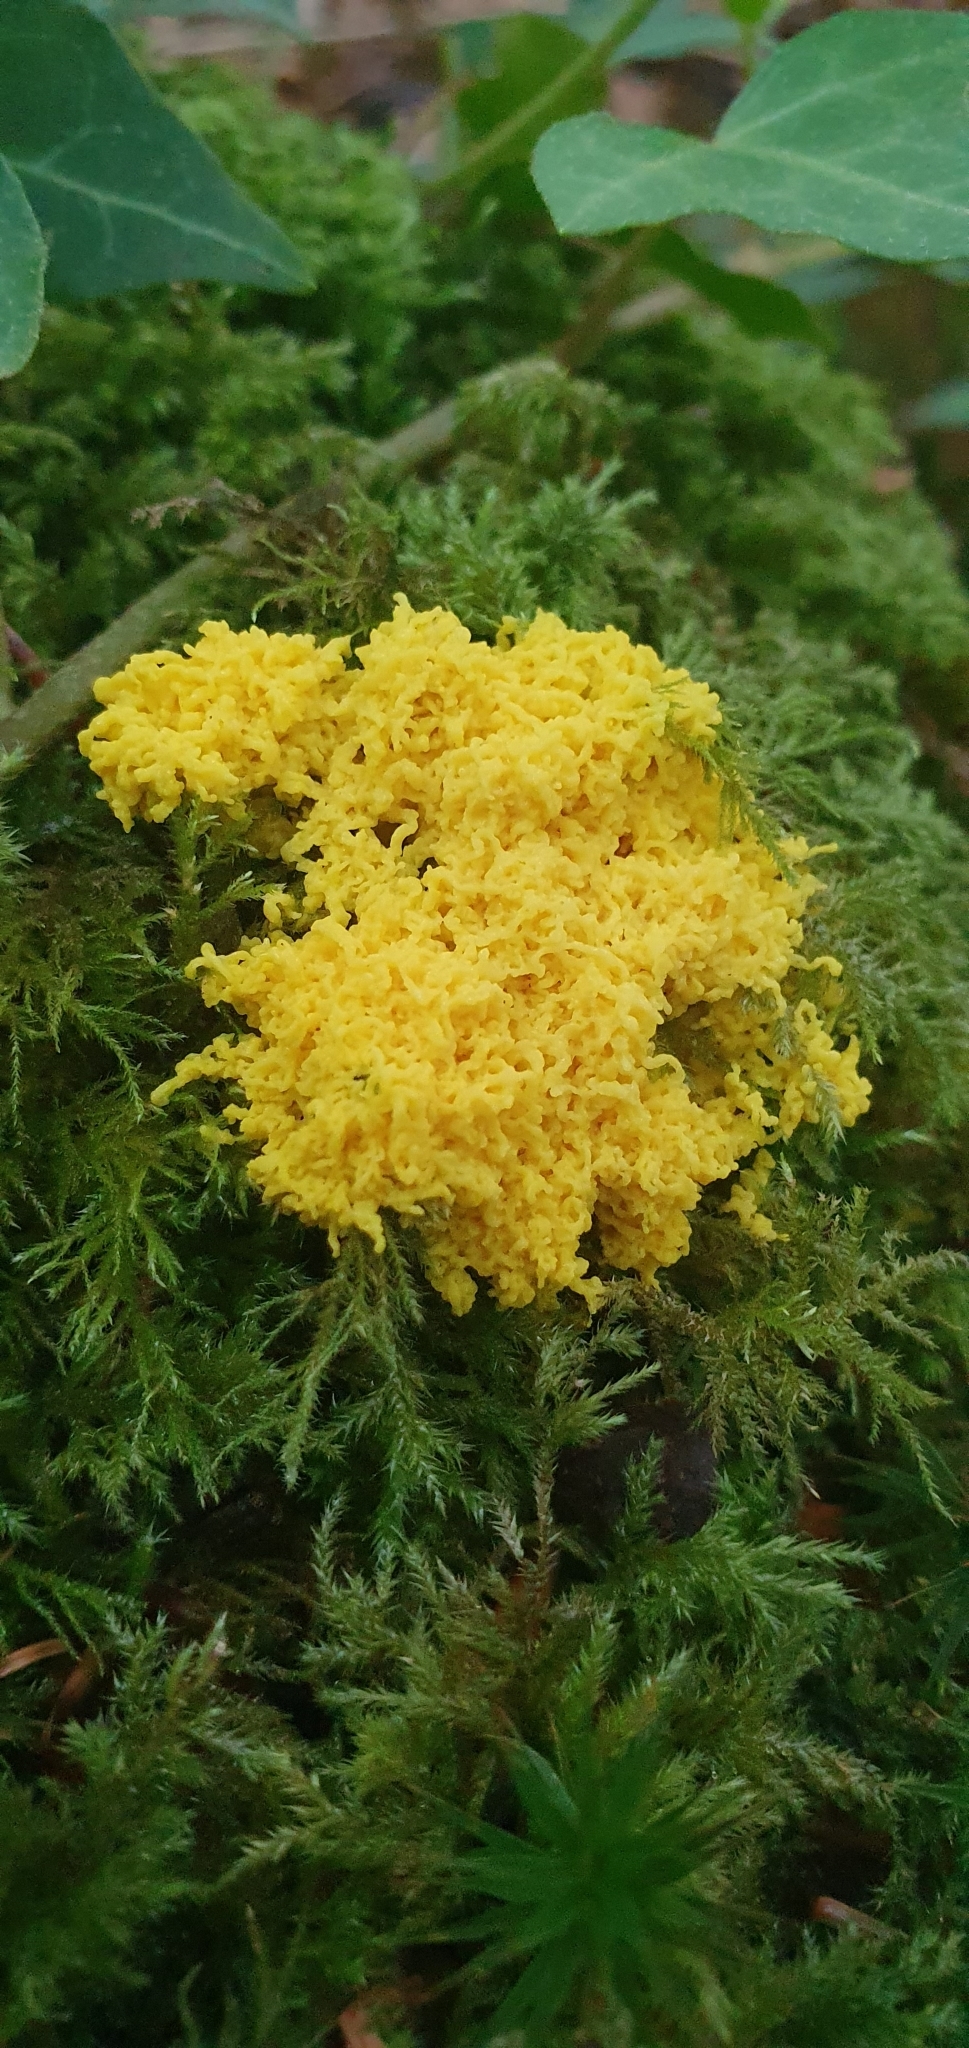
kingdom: Protozoa
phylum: Mycetozoa
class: Myxomycetes
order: Physarales
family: Physaraceae
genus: Fuligo
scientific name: Fuligo septica
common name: Dog vomit slime mold
